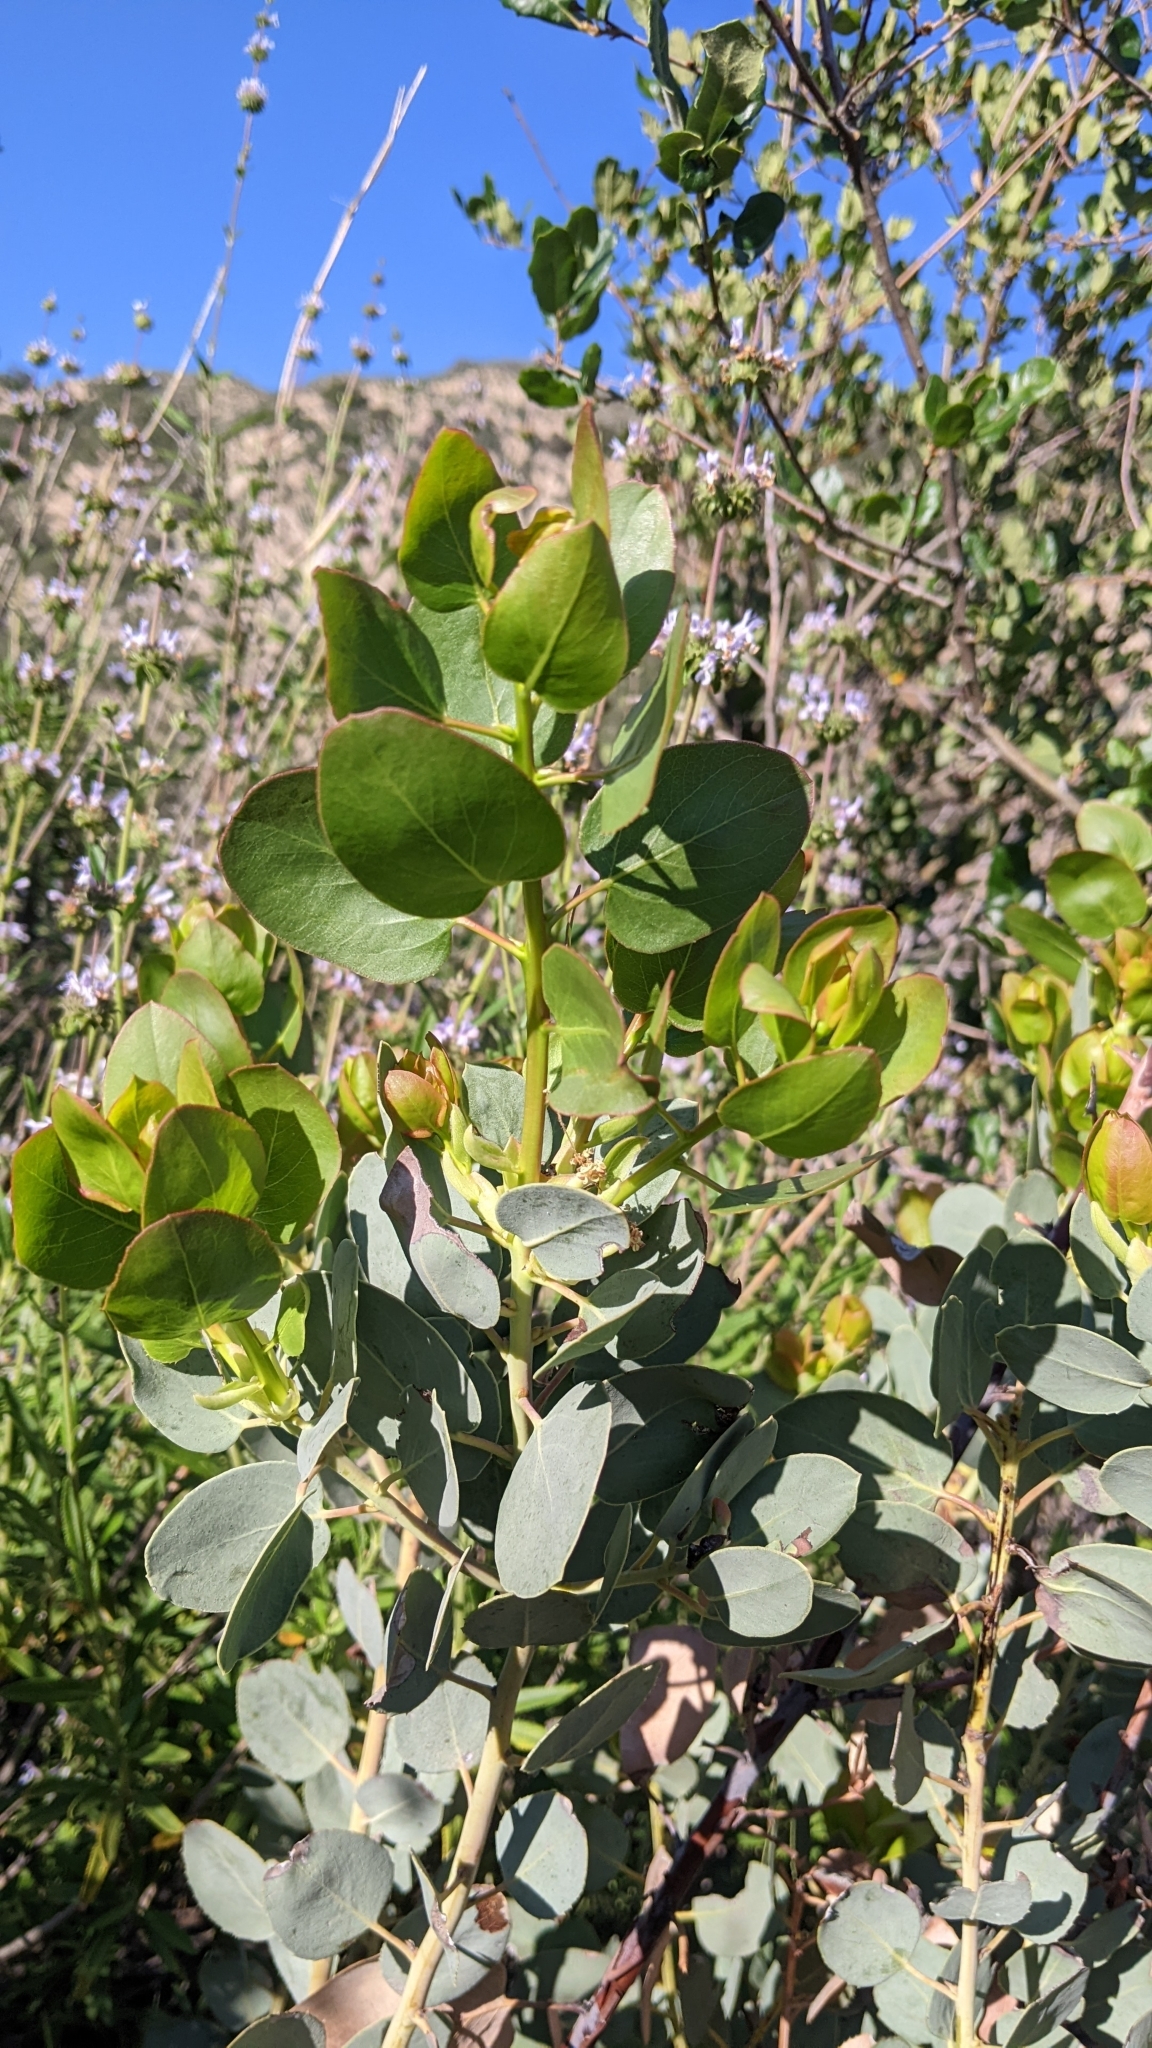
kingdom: Plantae
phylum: Tracheophyta
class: Magnoliopsida
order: Ericales
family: Ericaceae
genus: Arctostaphylos
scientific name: Arctostaphylos glauca
